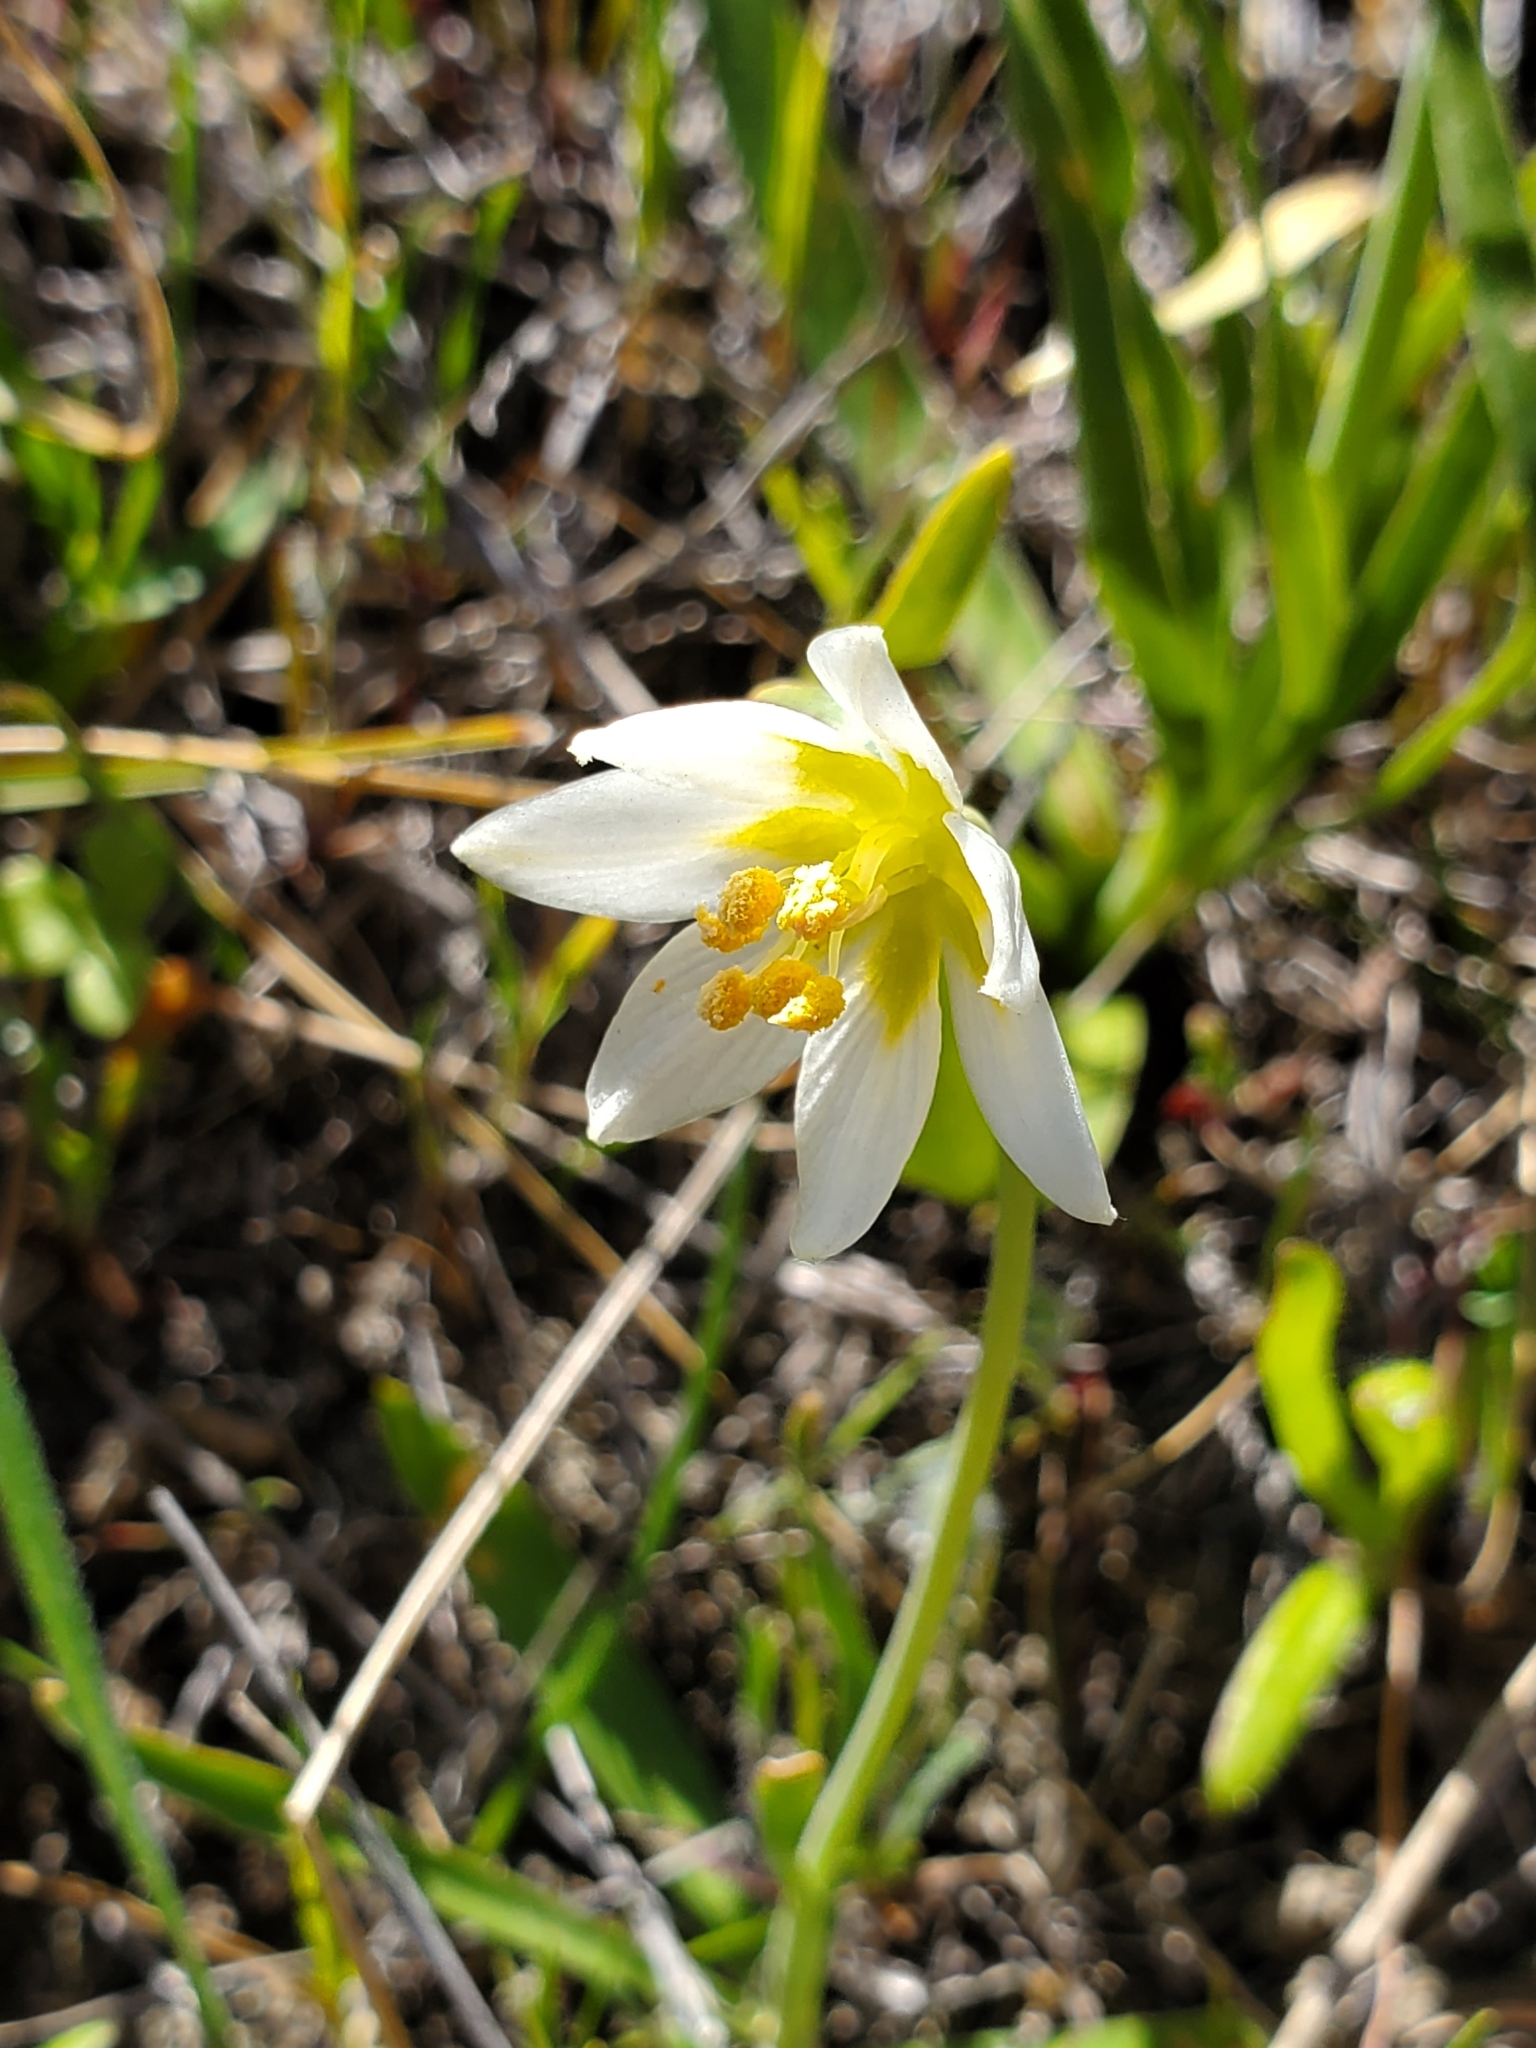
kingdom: Plantae
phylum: Tracheophyta
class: Liliopsida
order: Liliales
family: Liliaceae
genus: Fritillaria
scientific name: Fritillaria liliacea
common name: Fragrant fritillary
